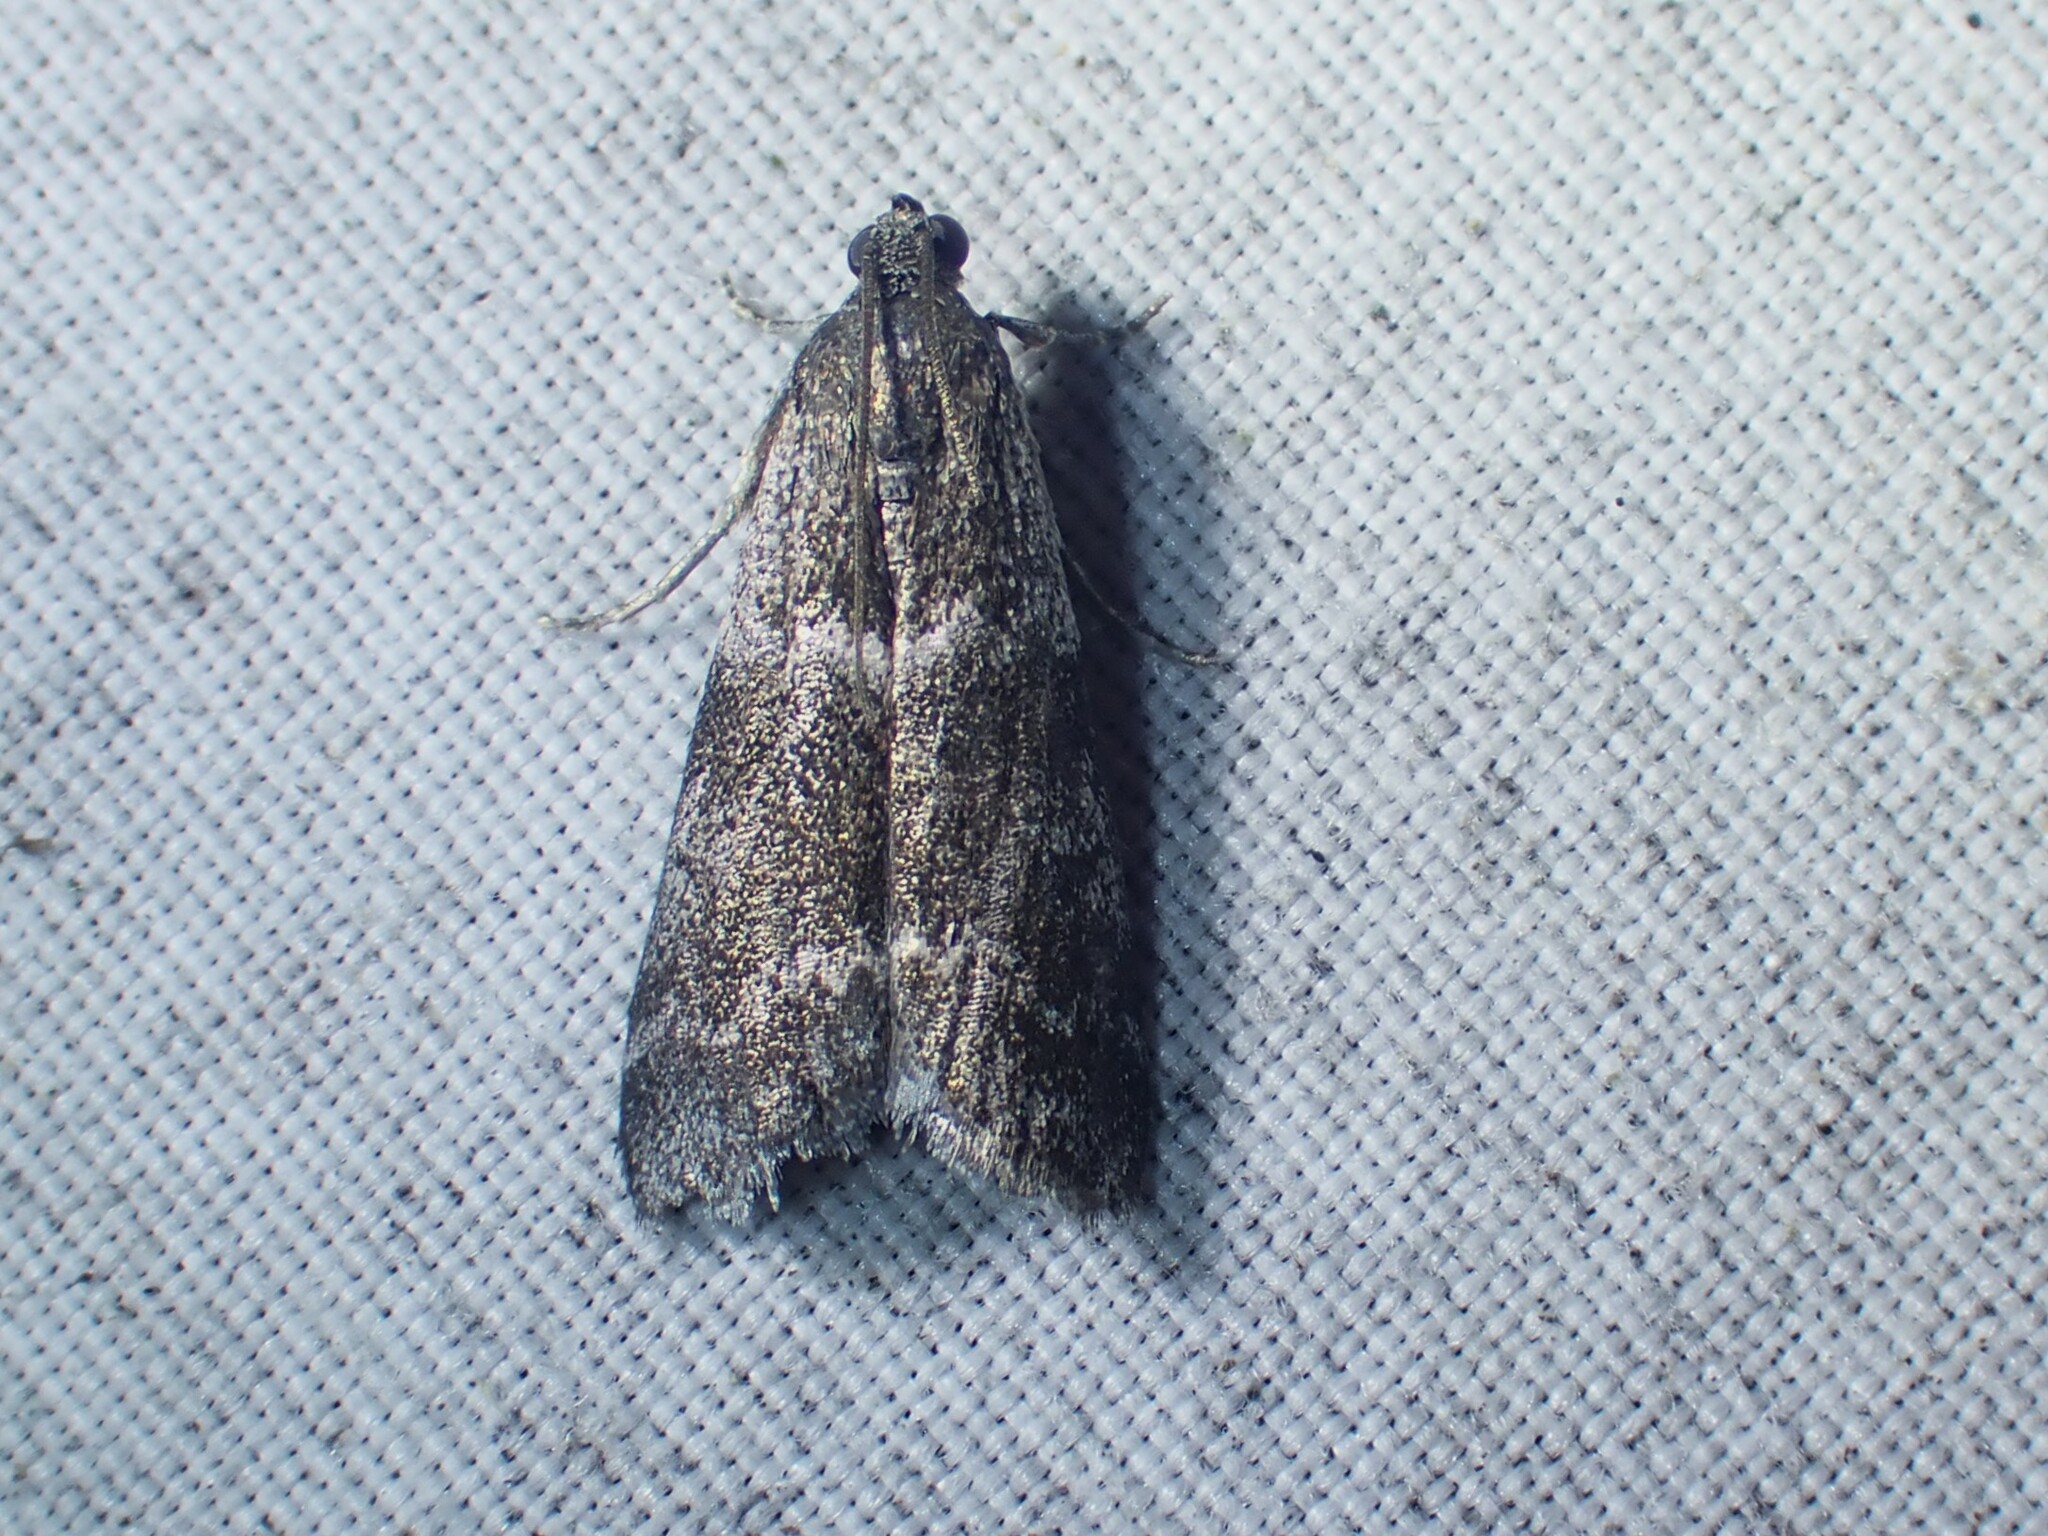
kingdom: Animalia
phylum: Arthropoda
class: Insecta
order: Lepidoptera
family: Pyralidae
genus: Apomyelois
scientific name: Apomyelois bistriatella
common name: Heath knot-horn
